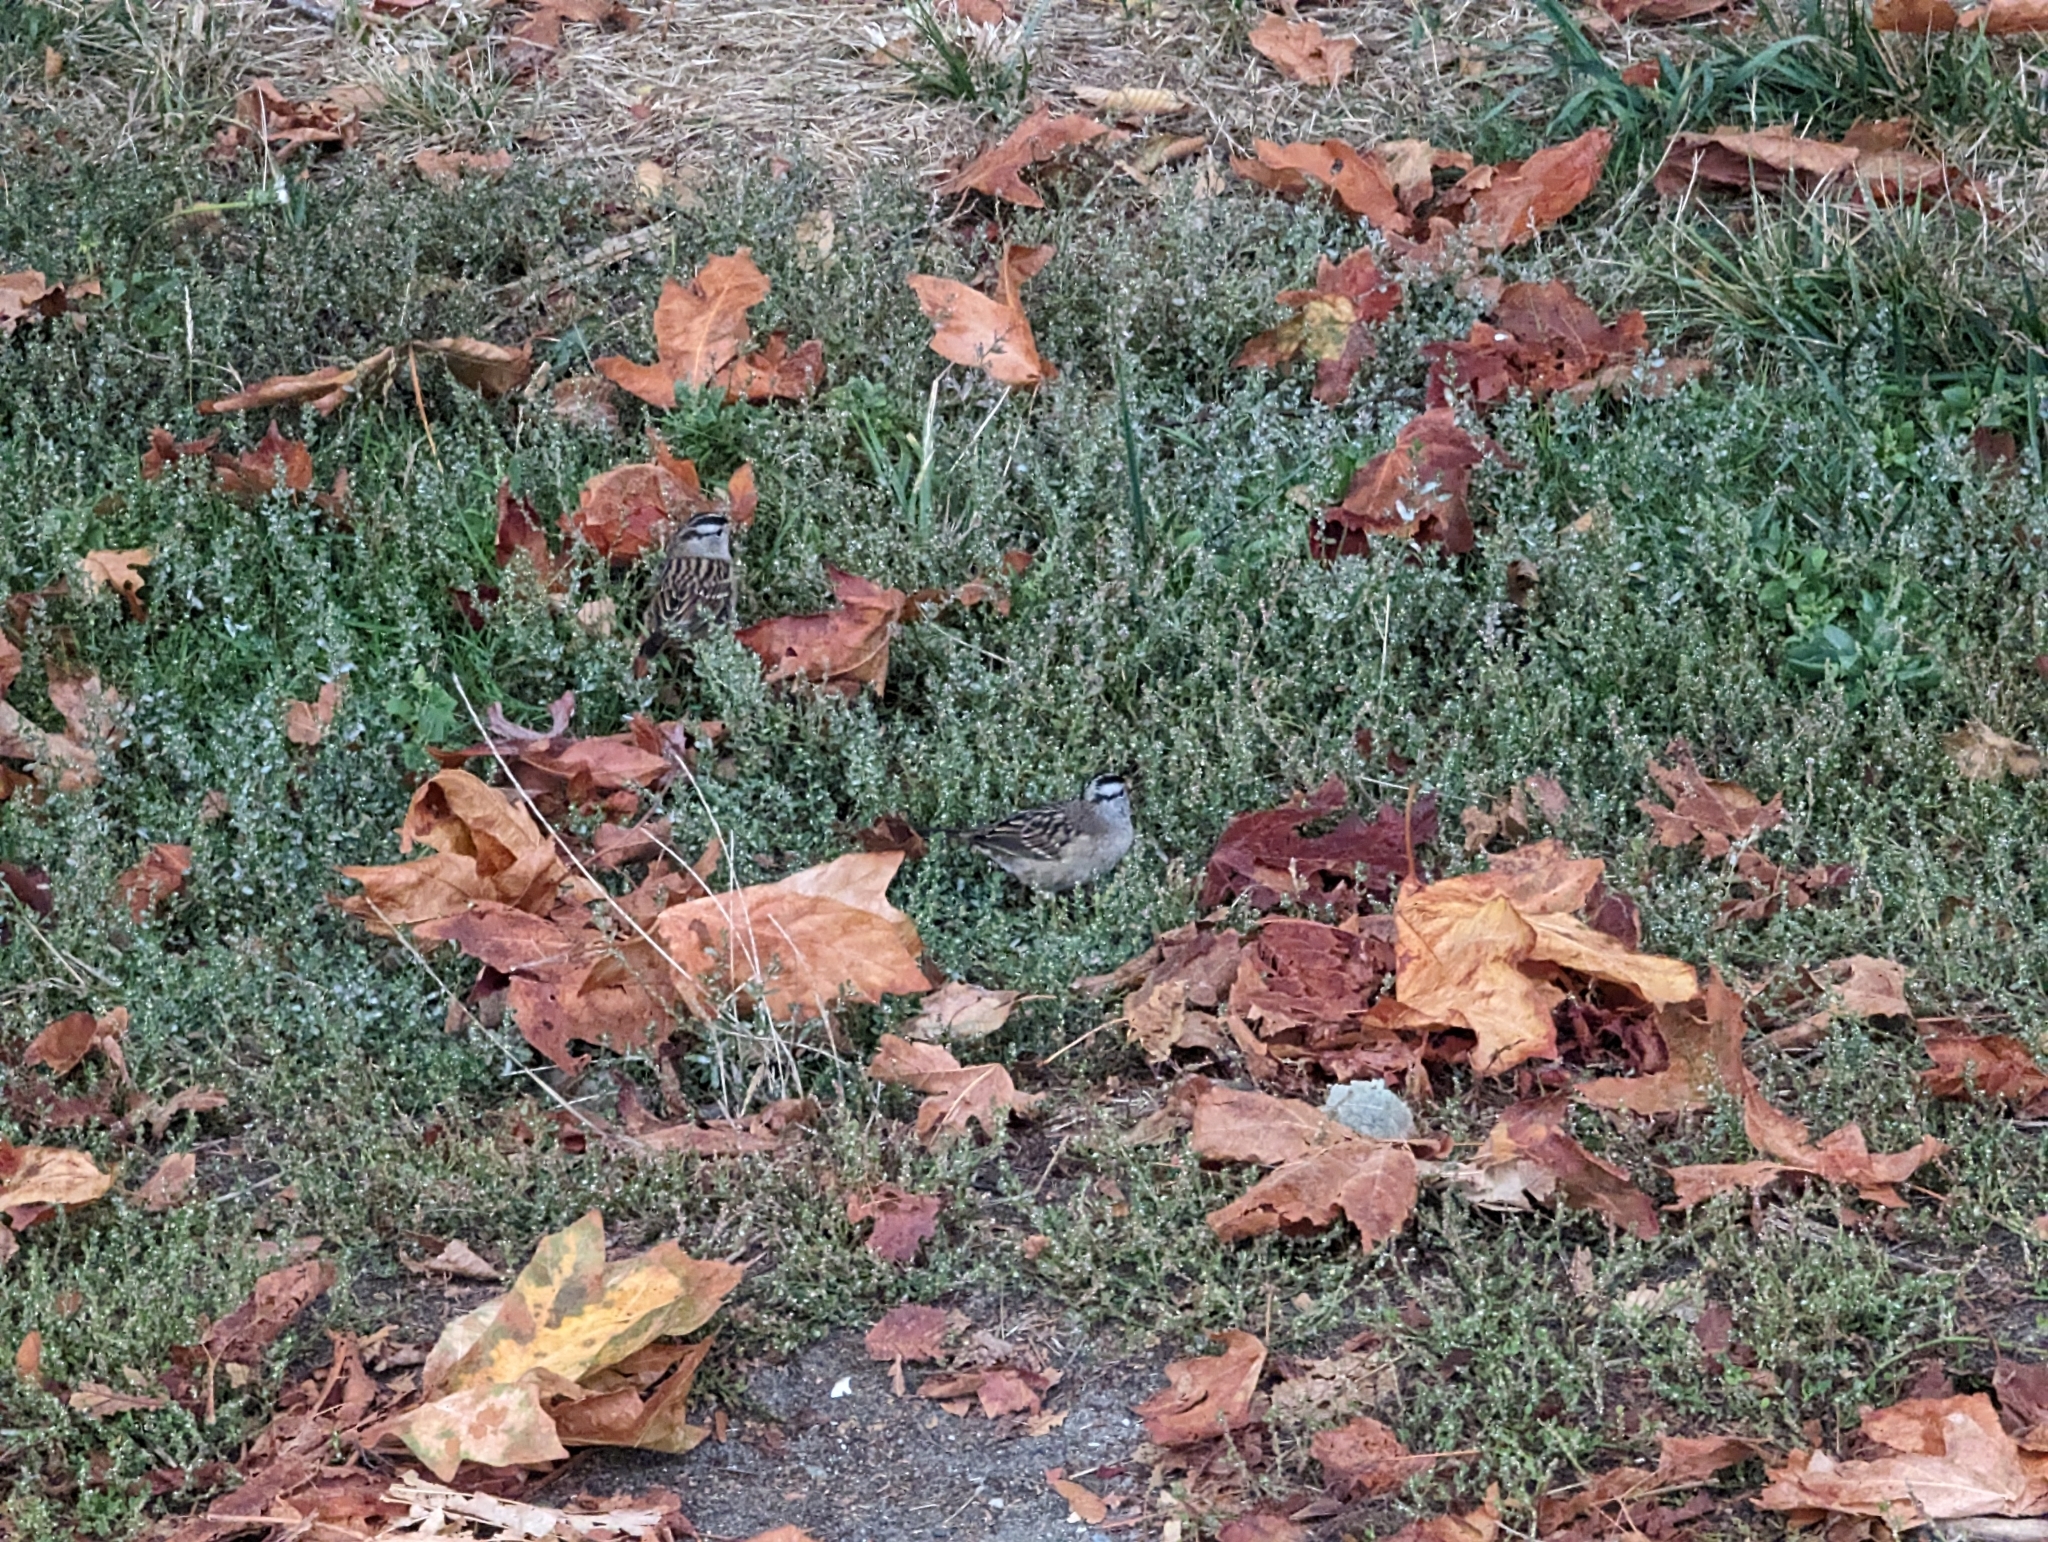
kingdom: Animalia
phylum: Chordata
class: Aves
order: Passeriformes
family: Passerellidae
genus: Zonotrichia
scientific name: Zonotrichia leucophrys
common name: White-crowned sparrow
